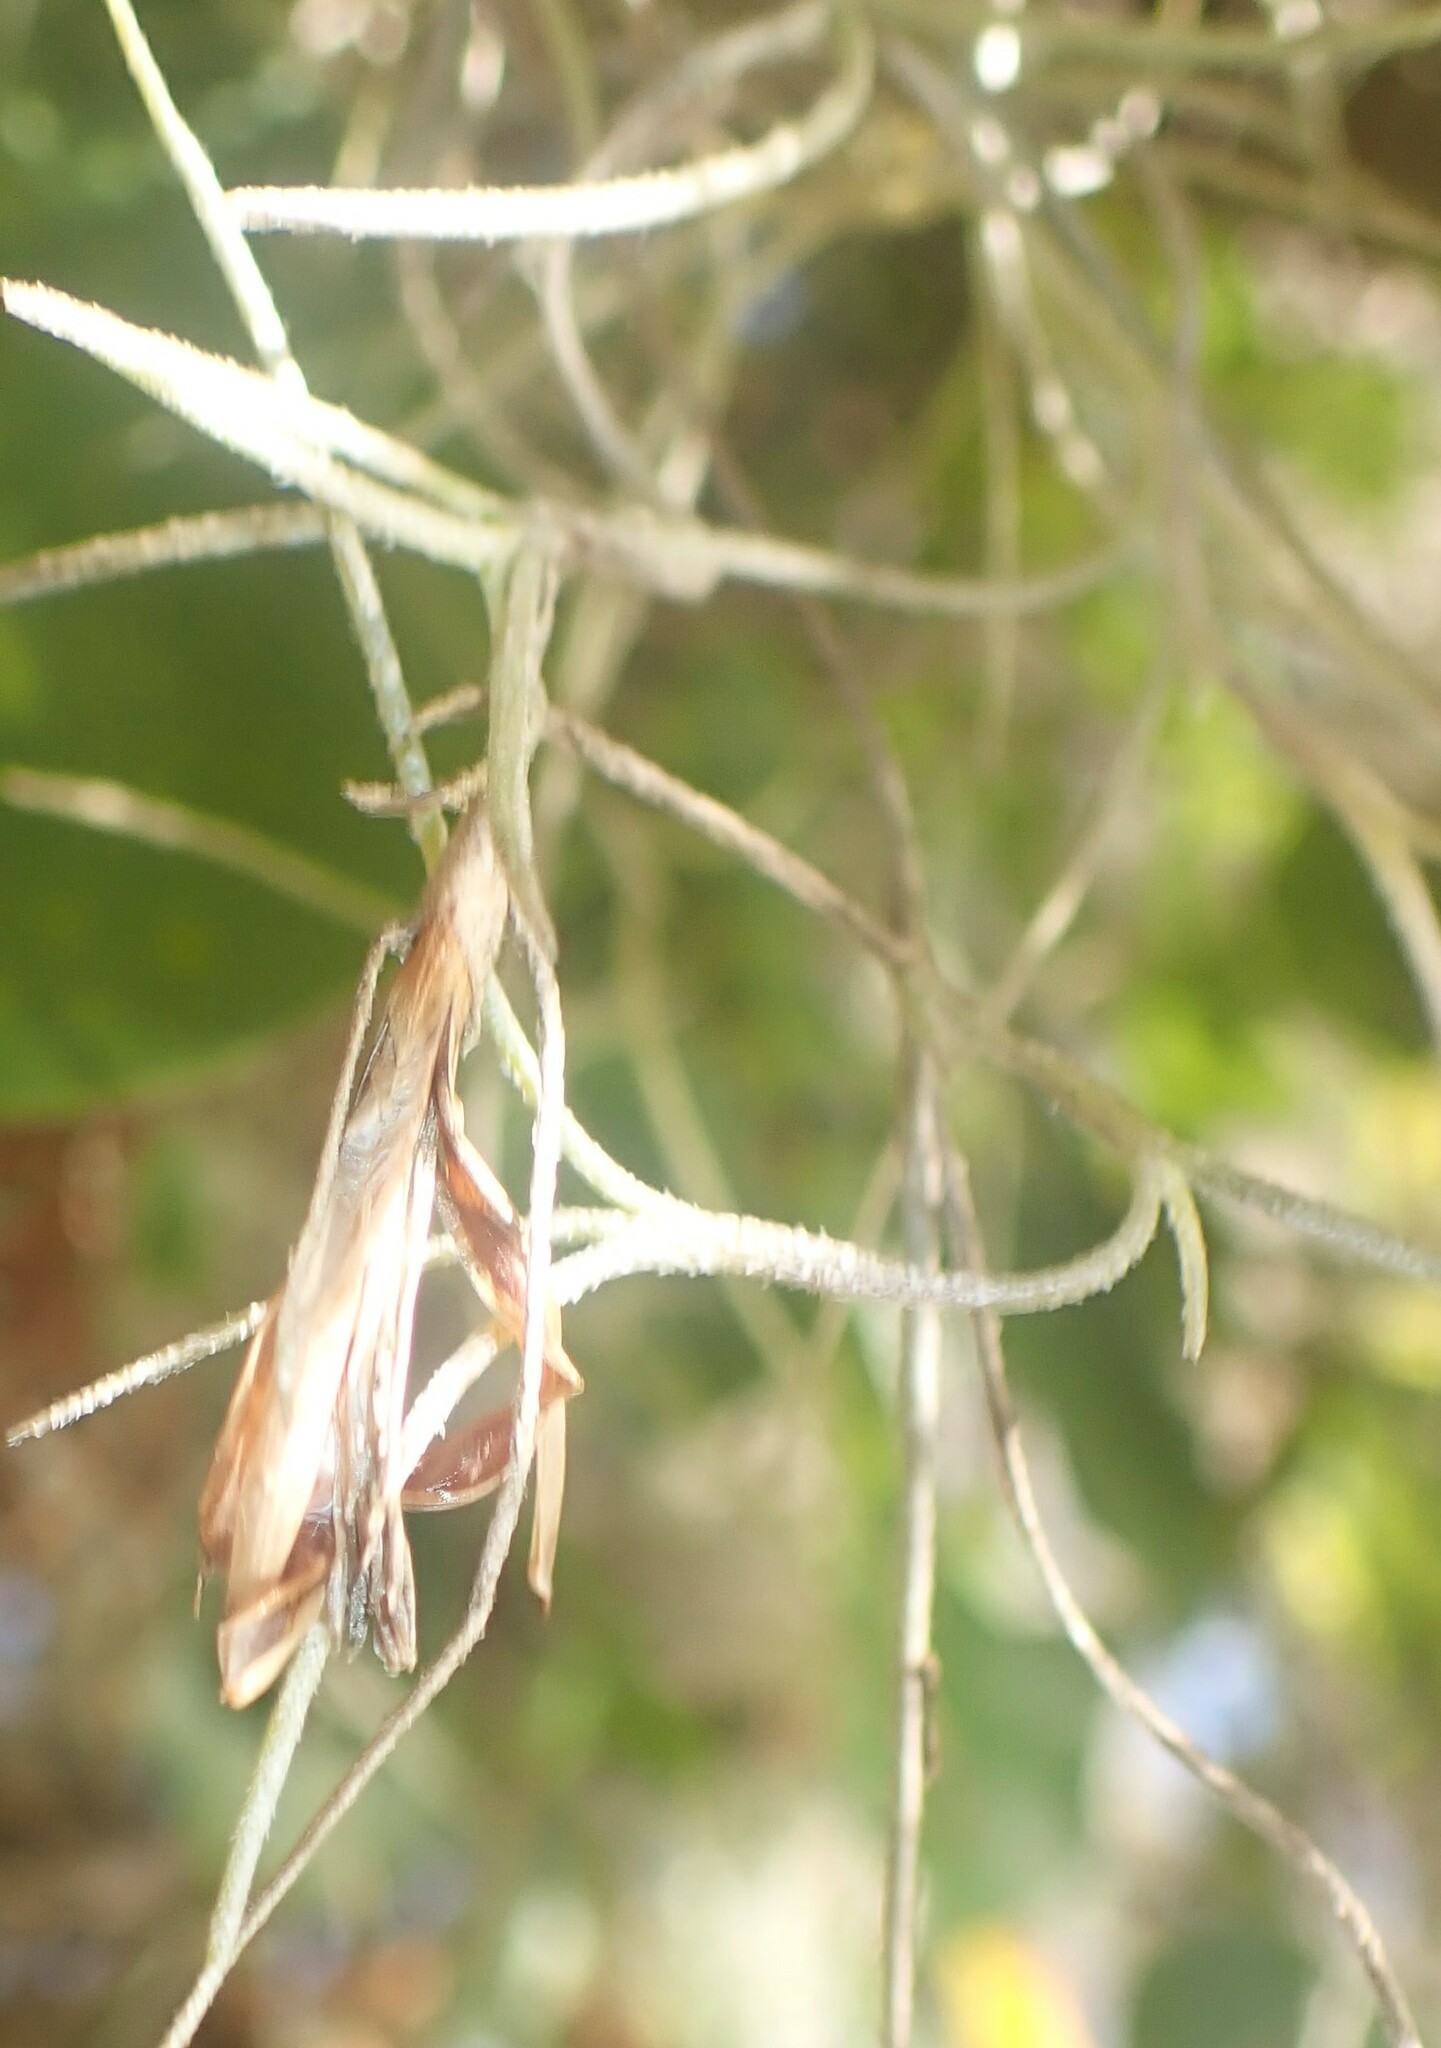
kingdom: Plantae
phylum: Tracheophyta
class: Liliopsida
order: Poales
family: Bromeliaceae
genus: Tillandsia
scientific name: Tillandsia usneoides
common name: Spanish moss
